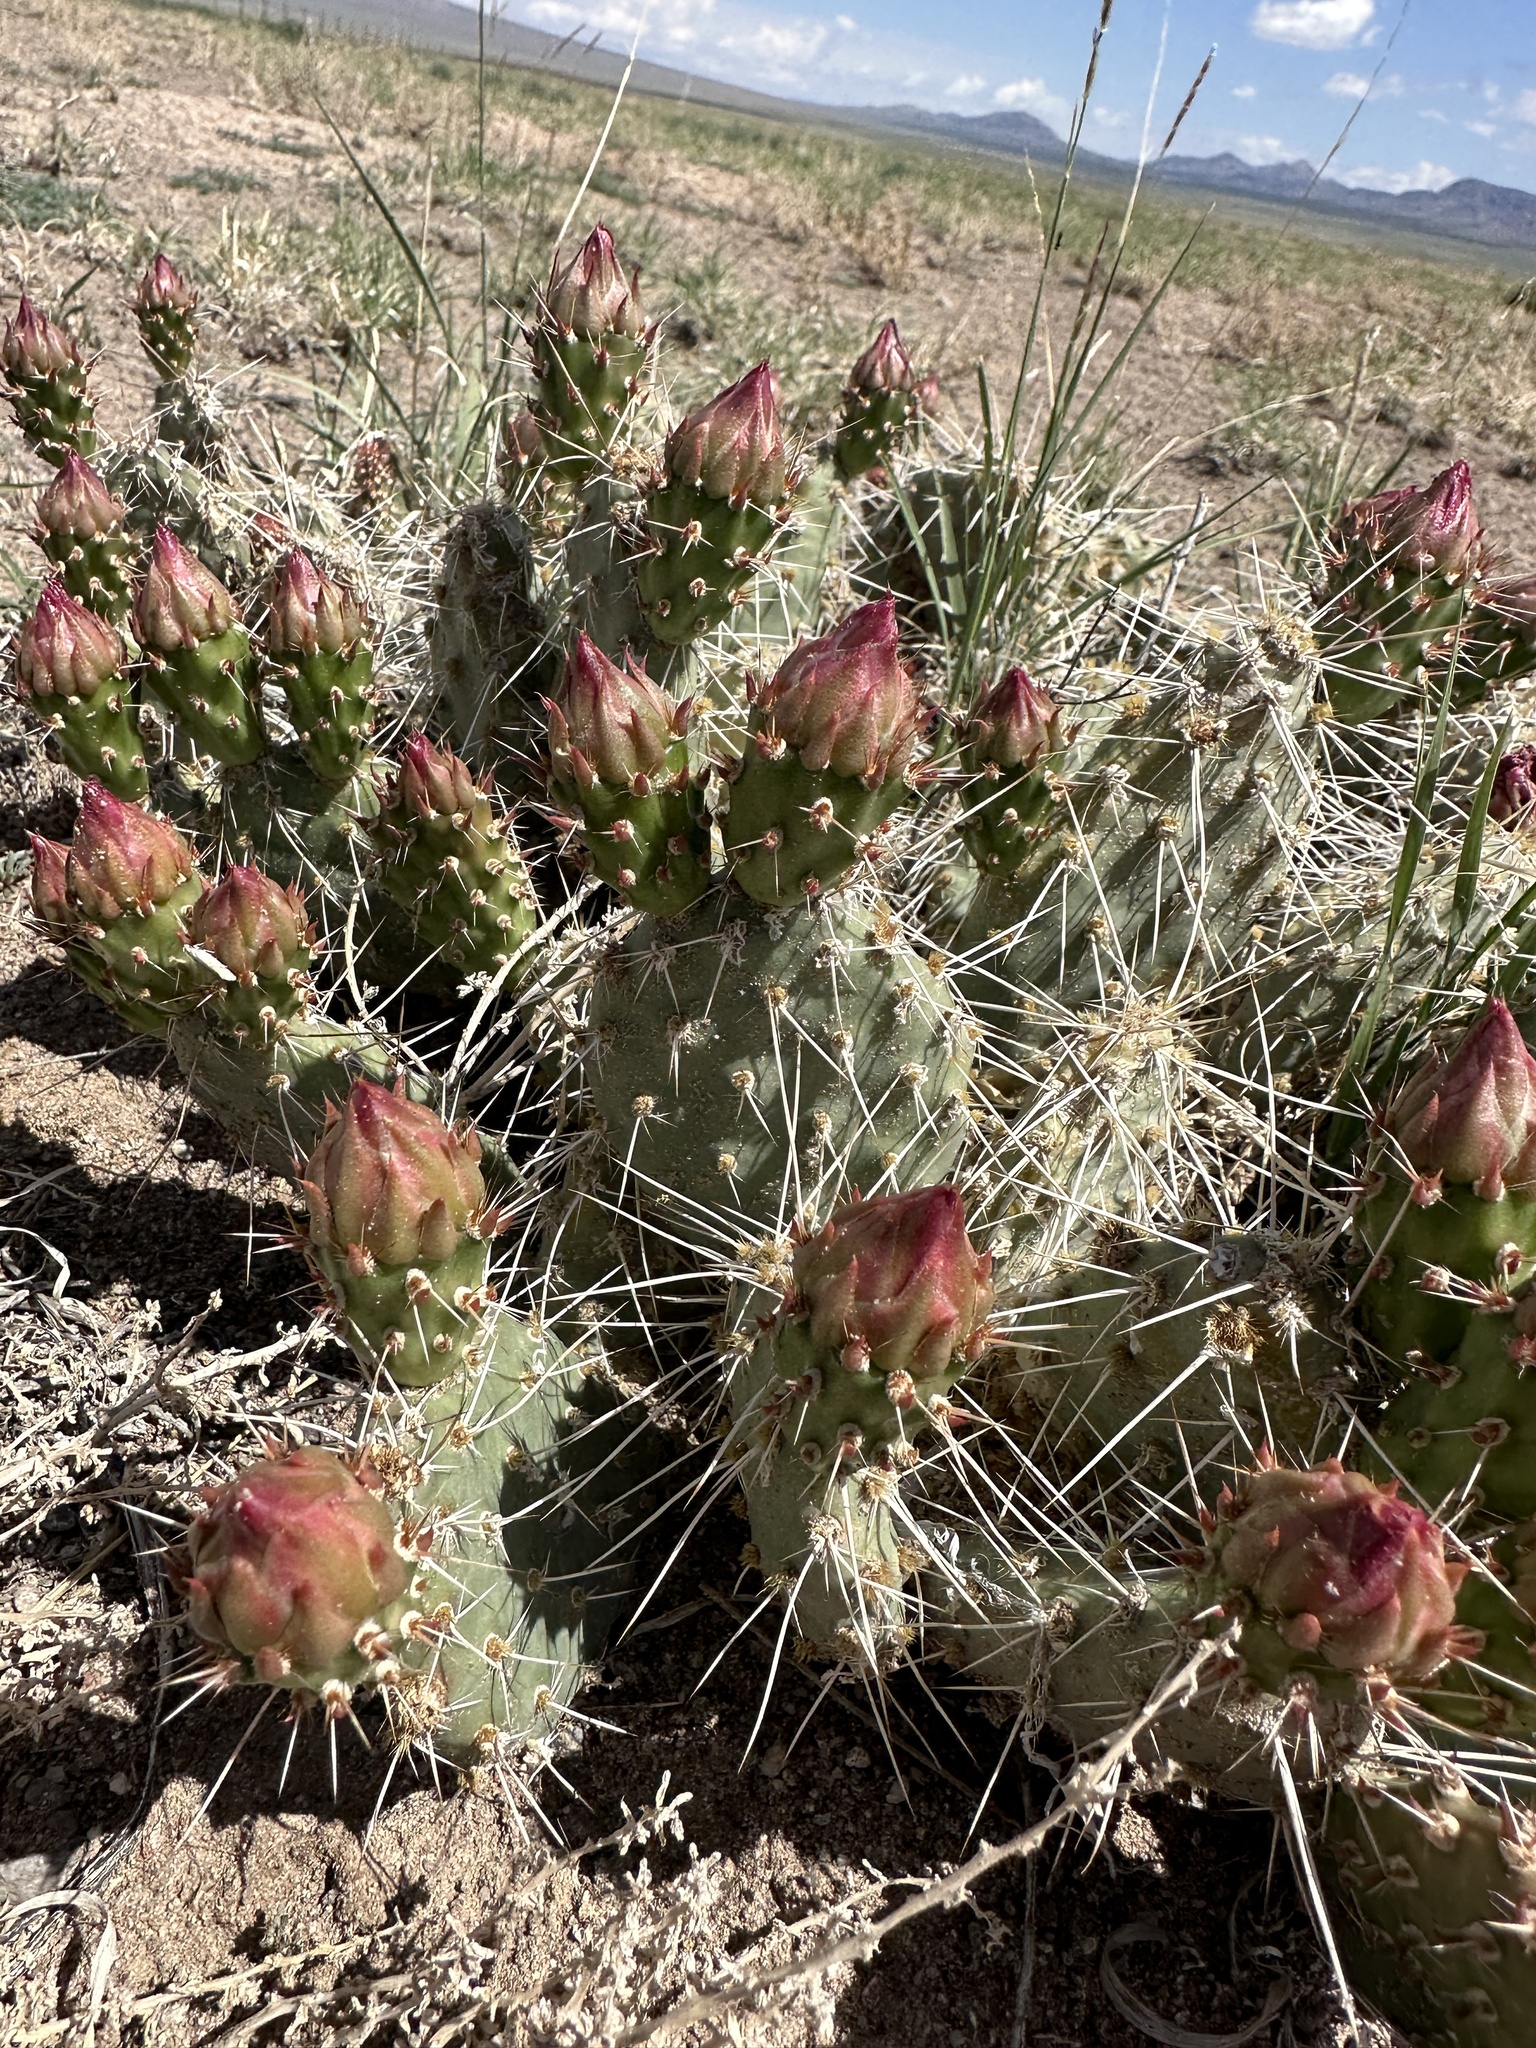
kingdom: Plantae
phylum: Tracheophyta
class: Magnoliopsida
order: Caryophyllales
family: Cactaceae
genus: Opuntia
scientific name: Opuntia polyacantha
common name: Plains prickly-pear
